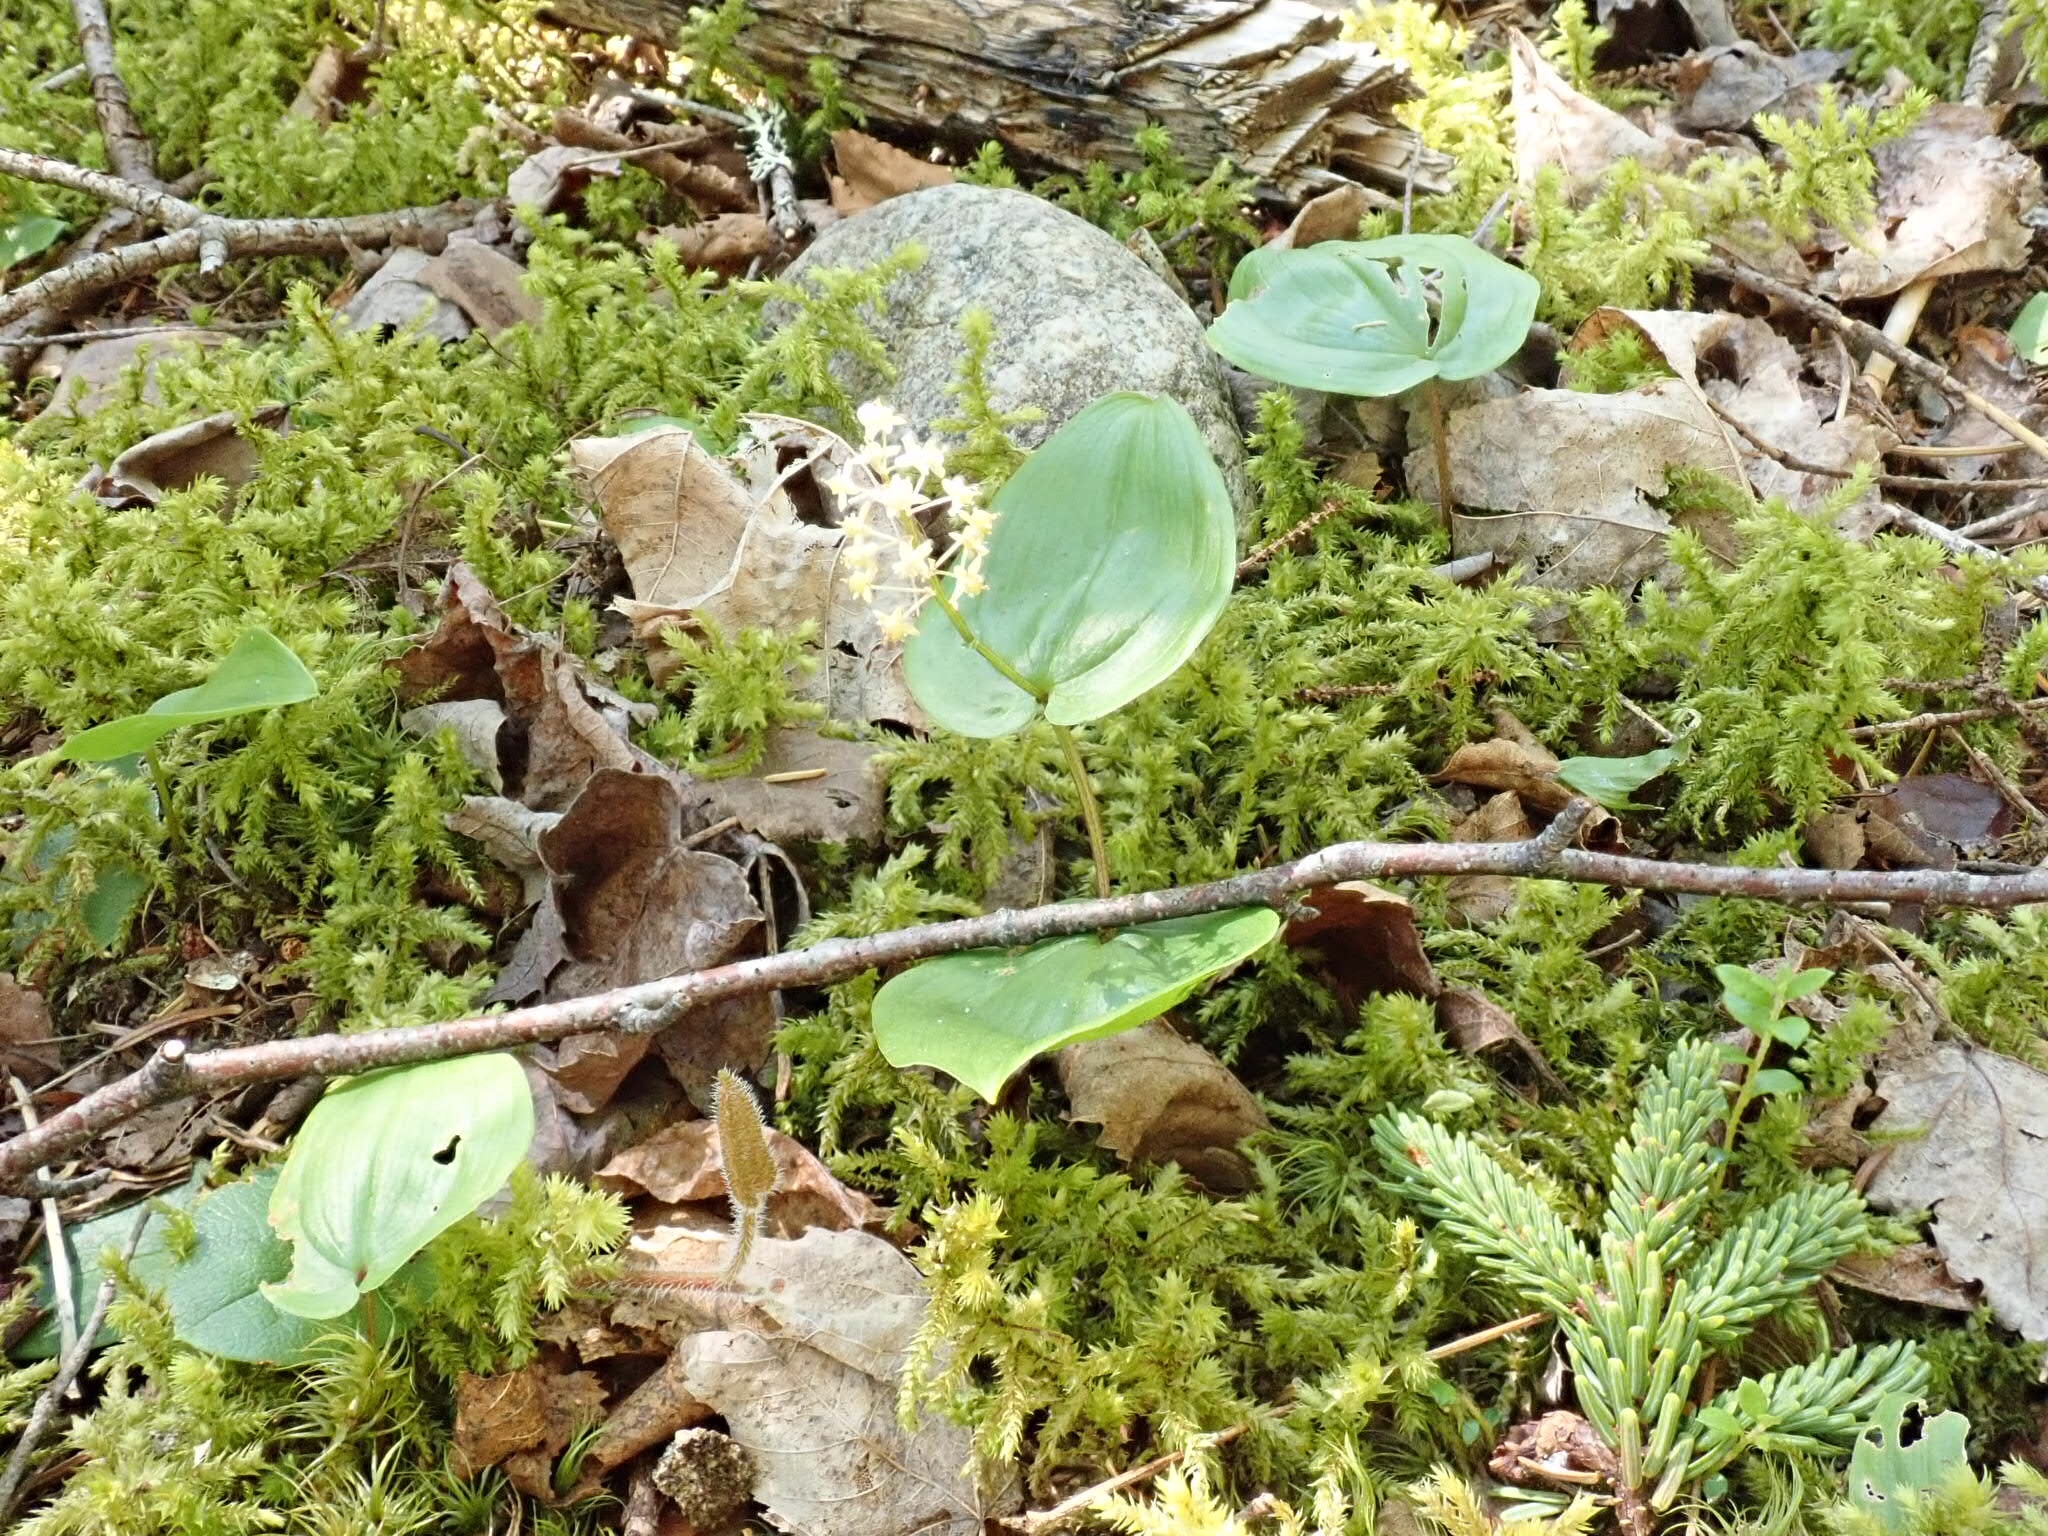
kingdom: Plantae
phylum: Tracheophyta
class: Liliopsida
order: Asparagales
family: Asparagaceae
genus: Maianthemum
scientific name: Maianthemum canadense
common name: False lily-of-the-valley
